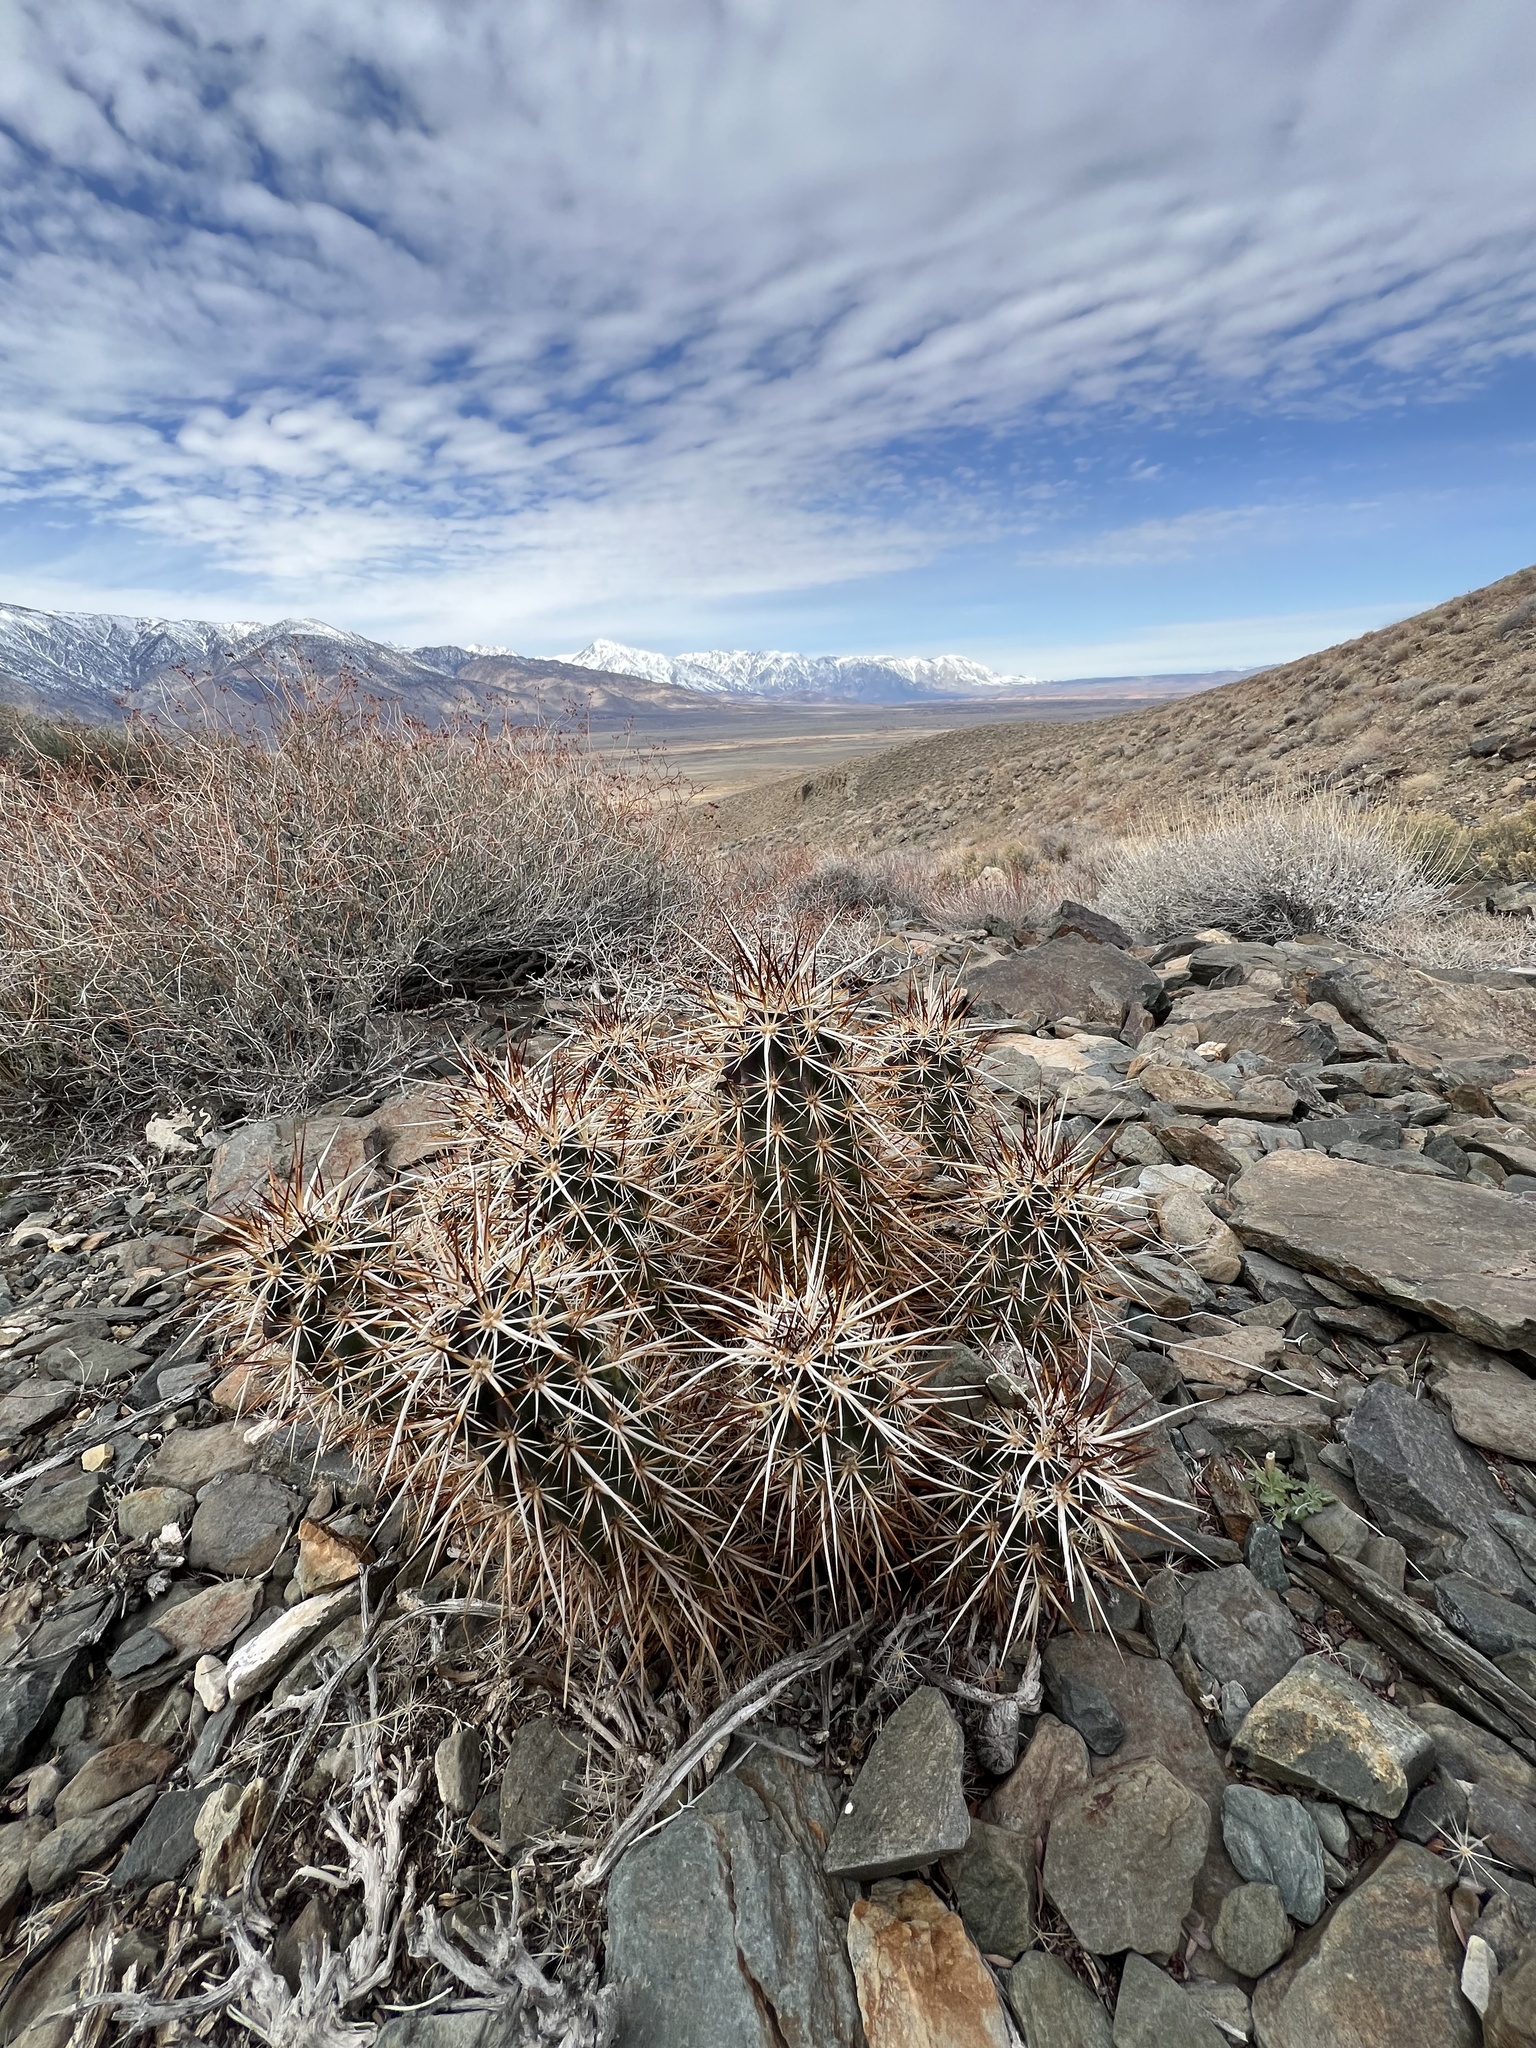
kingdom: Plantae
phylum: Tracheophyta
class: Magnoliopsida
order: Caryophyllales
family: Cactaceae
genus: Echinocereus
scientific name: Echinocereus engelmannii
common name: Engelmann's hedgehog cactus
